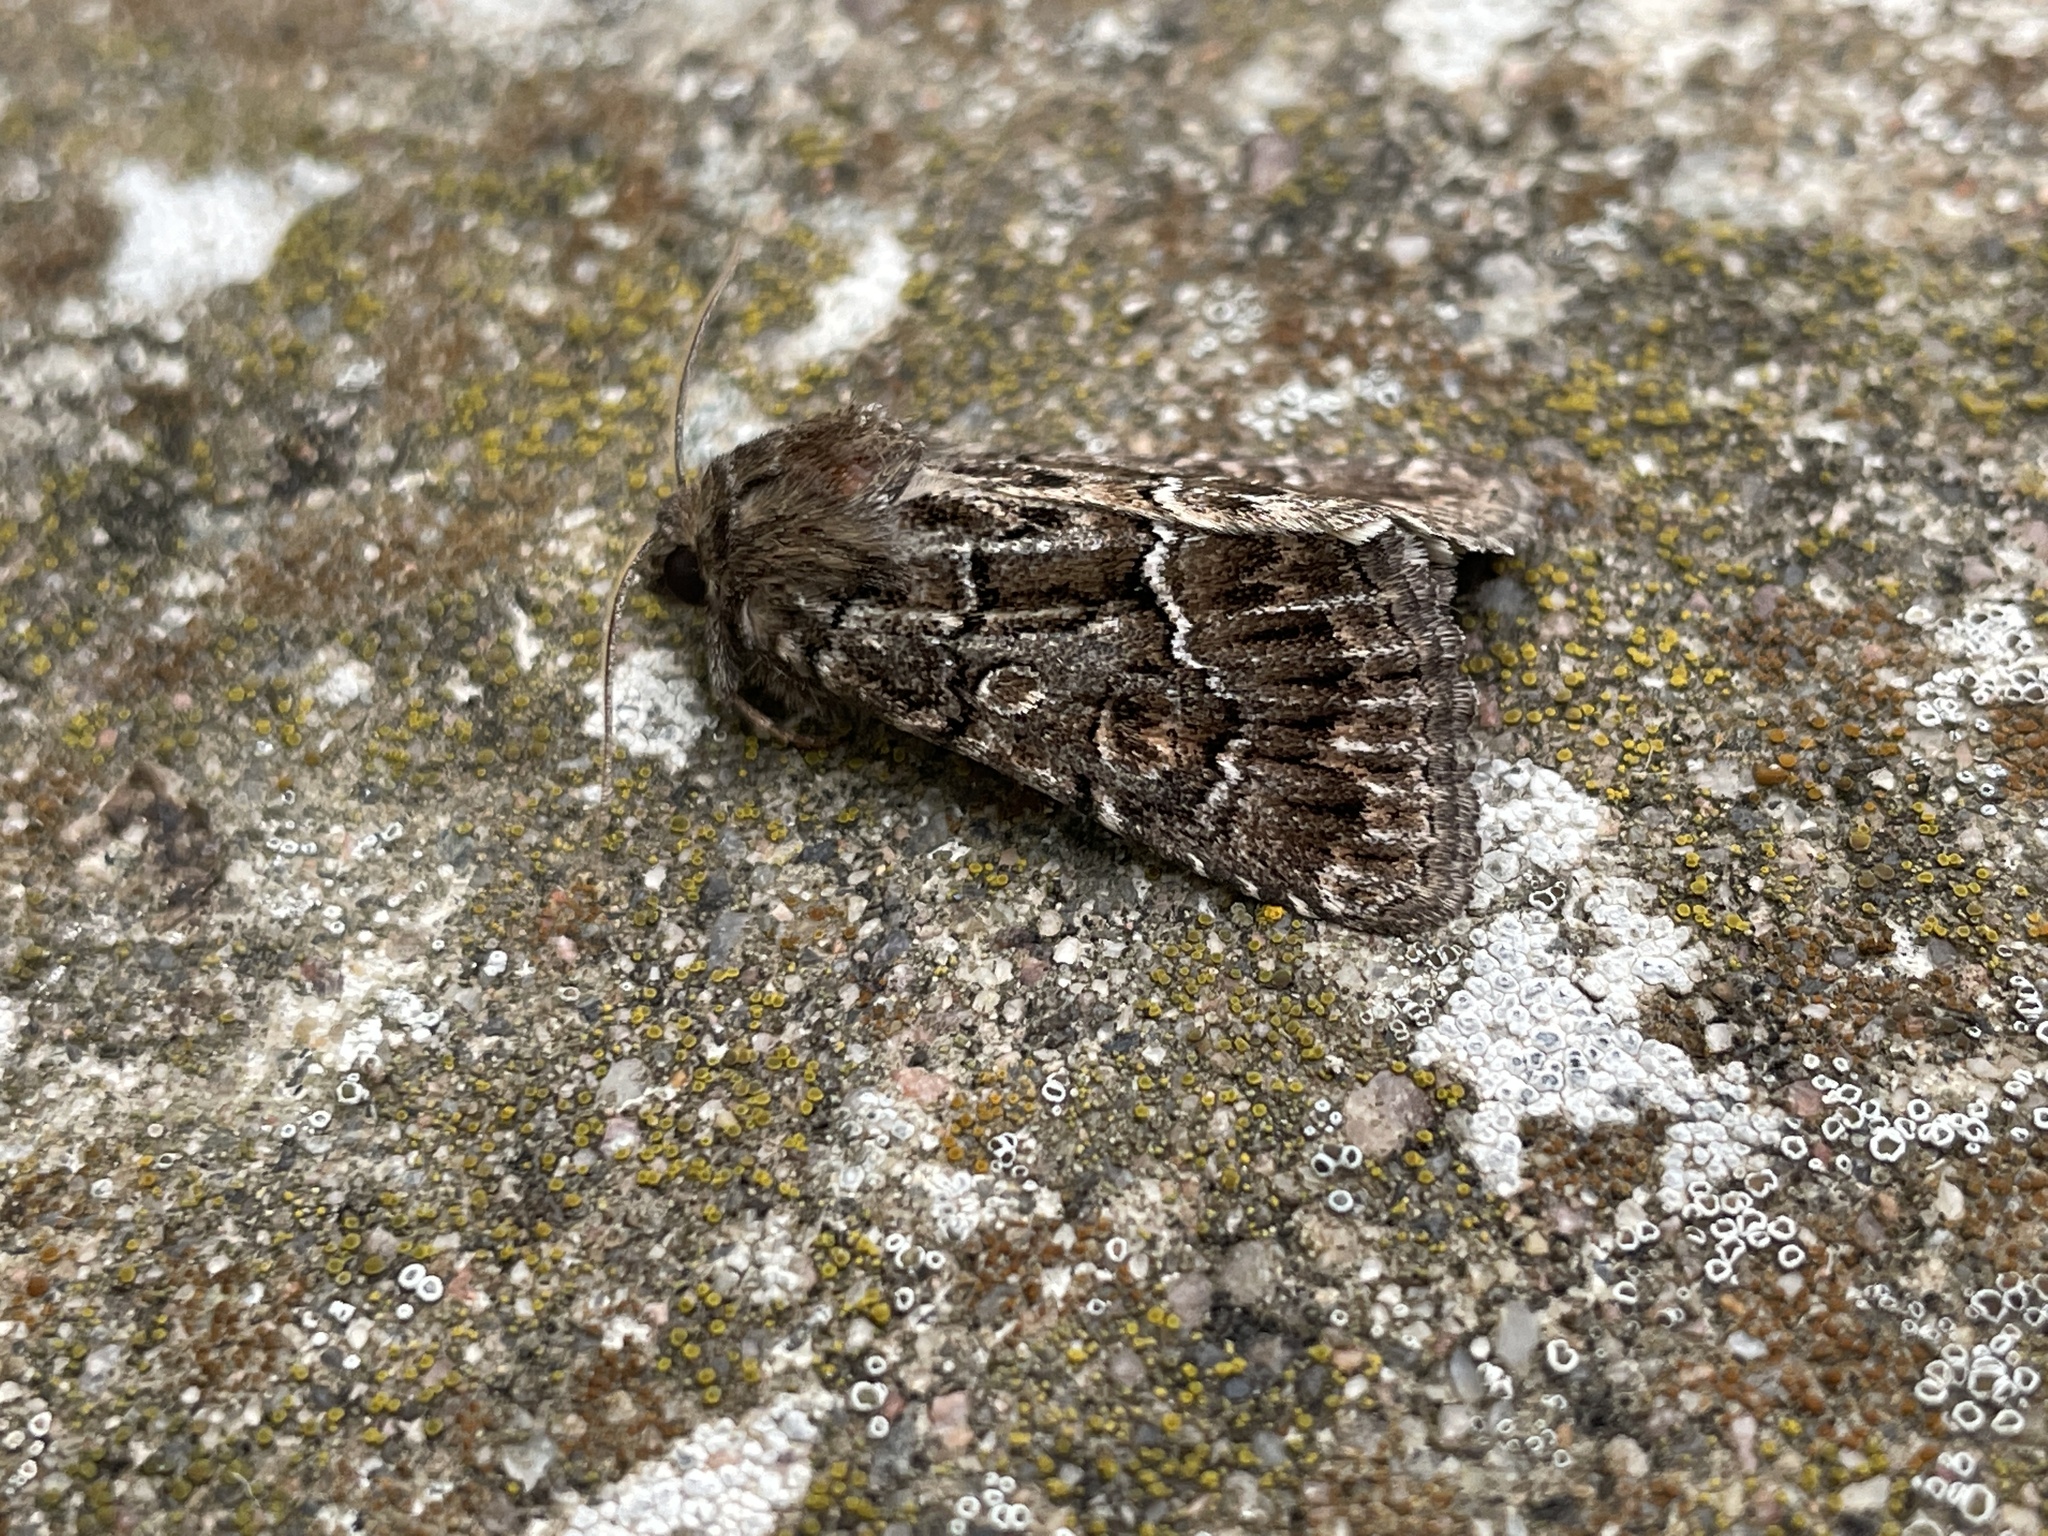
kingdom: Animalia
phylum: Arthropoda
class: Insecta
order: Lepidoptera
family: Noctuidae
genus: Thalpophila
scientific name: Thalpophila matura
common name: Straw underwing
